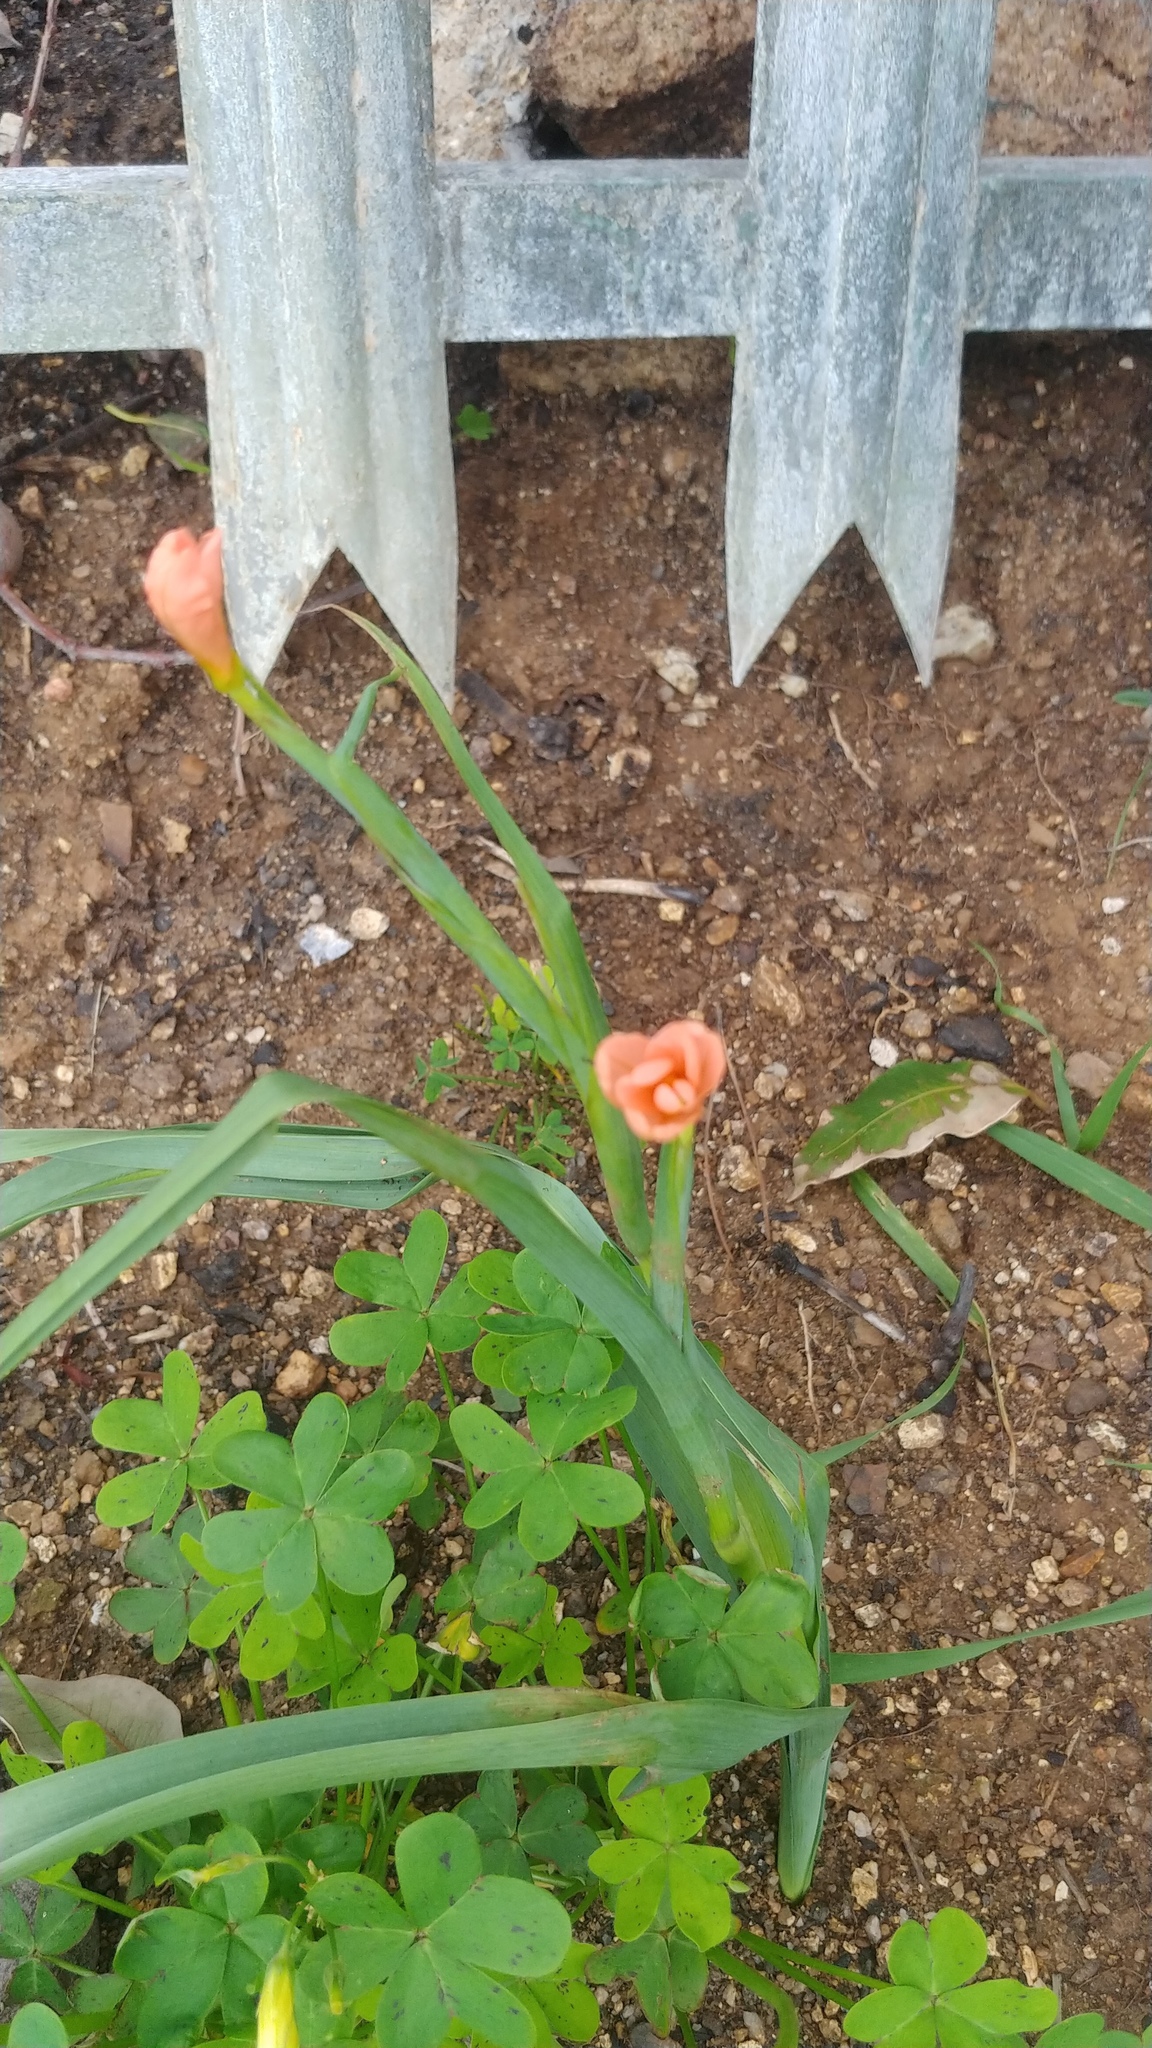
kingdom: Plantae
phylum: Tracheophyta
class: Liliopsida
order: Asparagales
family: Iridaceae
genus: Moraea
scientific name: Moraea miniata
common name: Two-leaf cape-tulip
